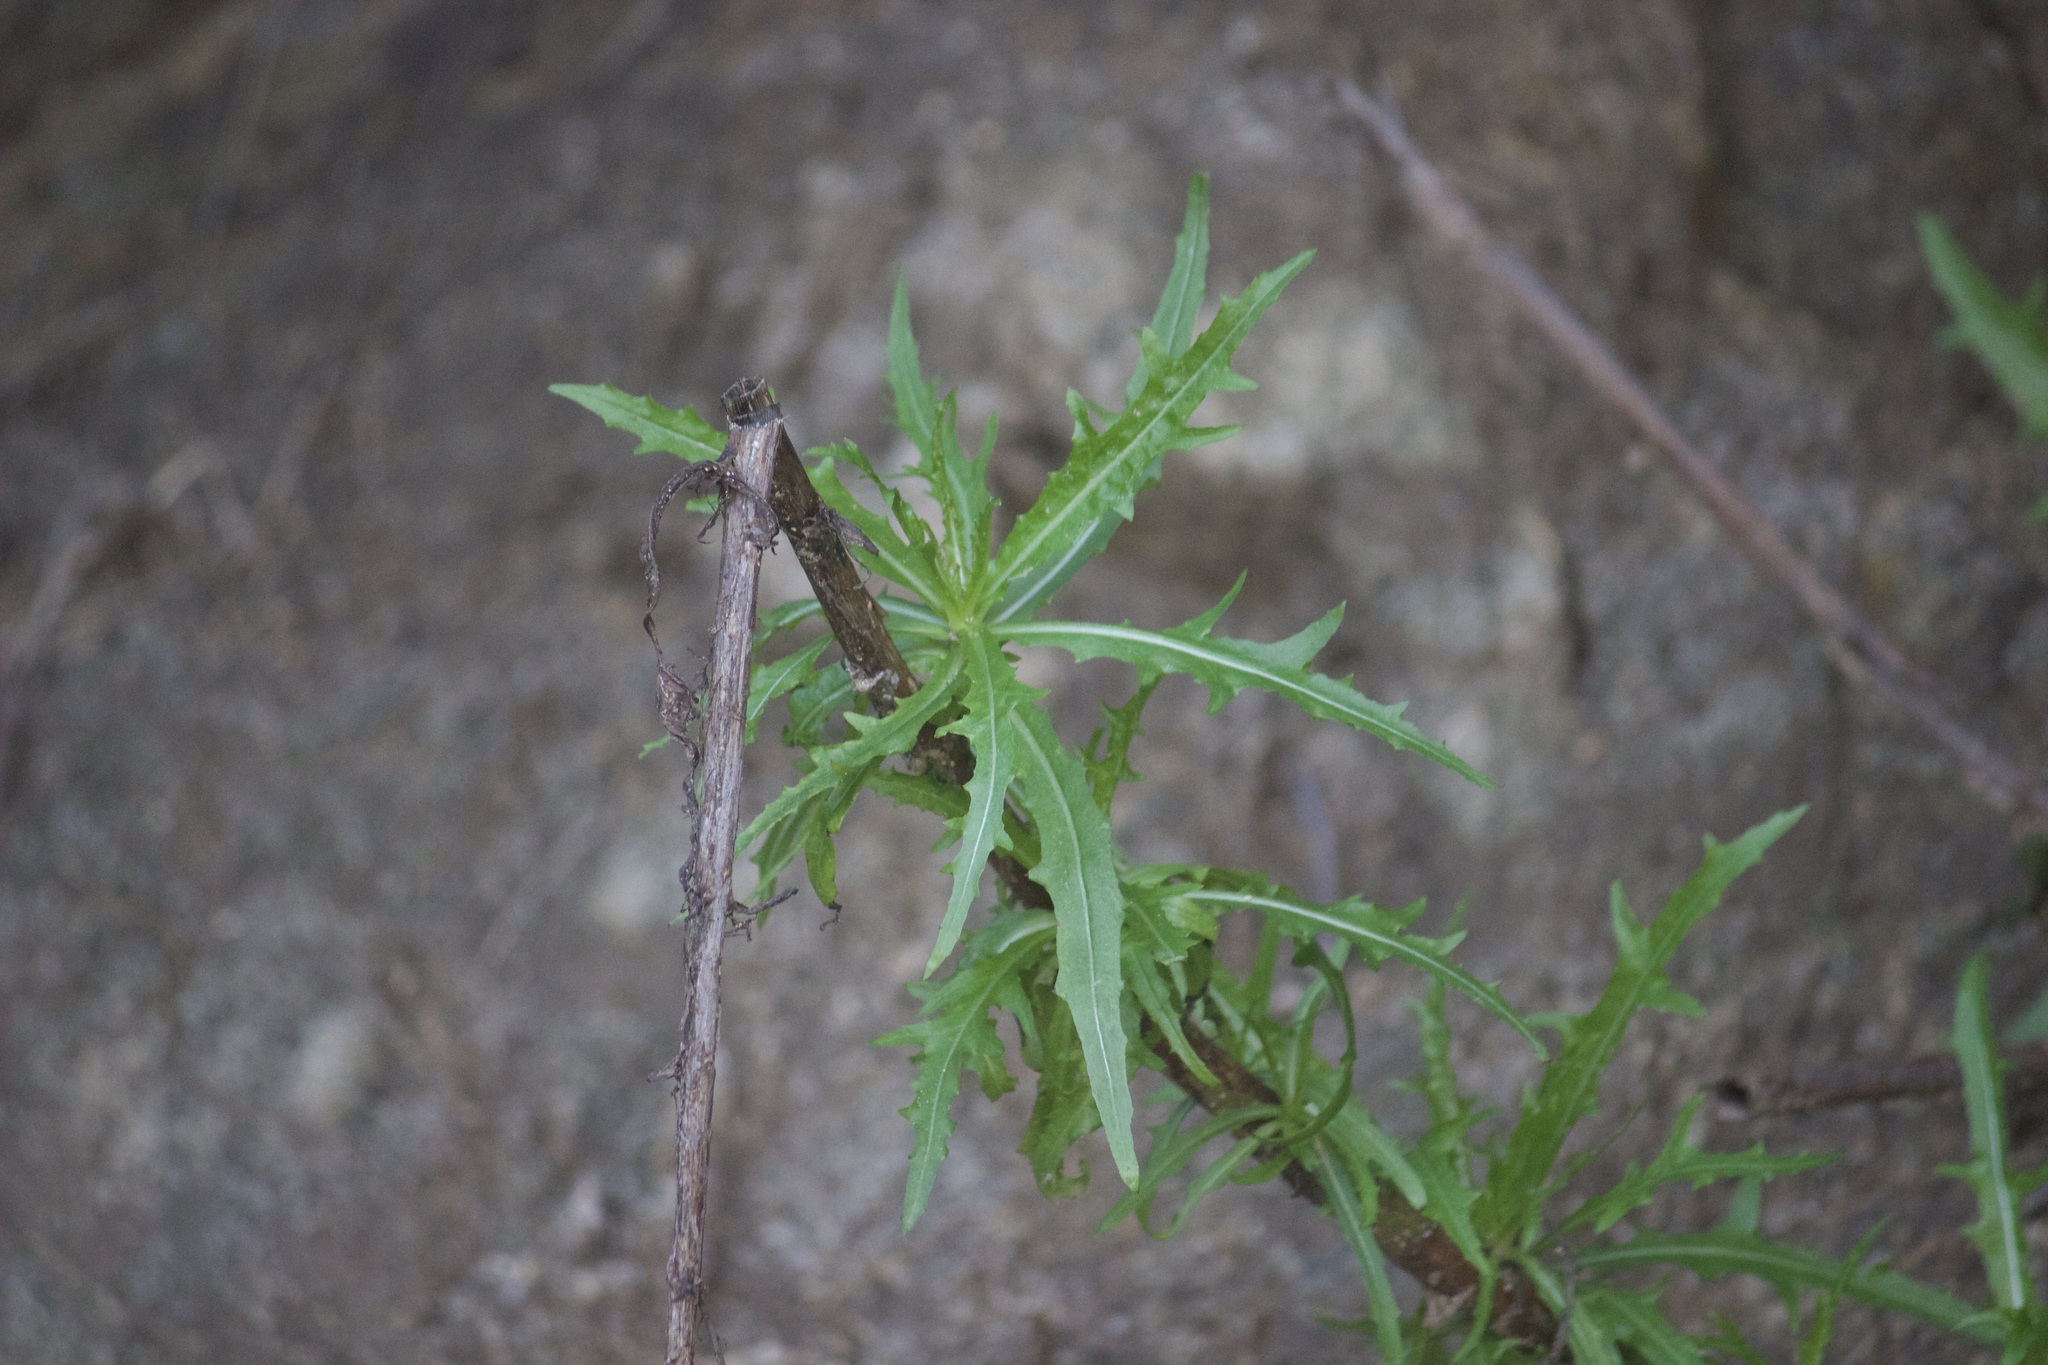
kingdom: Plantae
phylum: Tracheophyta
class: Magnoliopsida
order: Asterales
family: Asteraceae
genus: Malacothrix
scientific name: Malacothrix saxatilis
